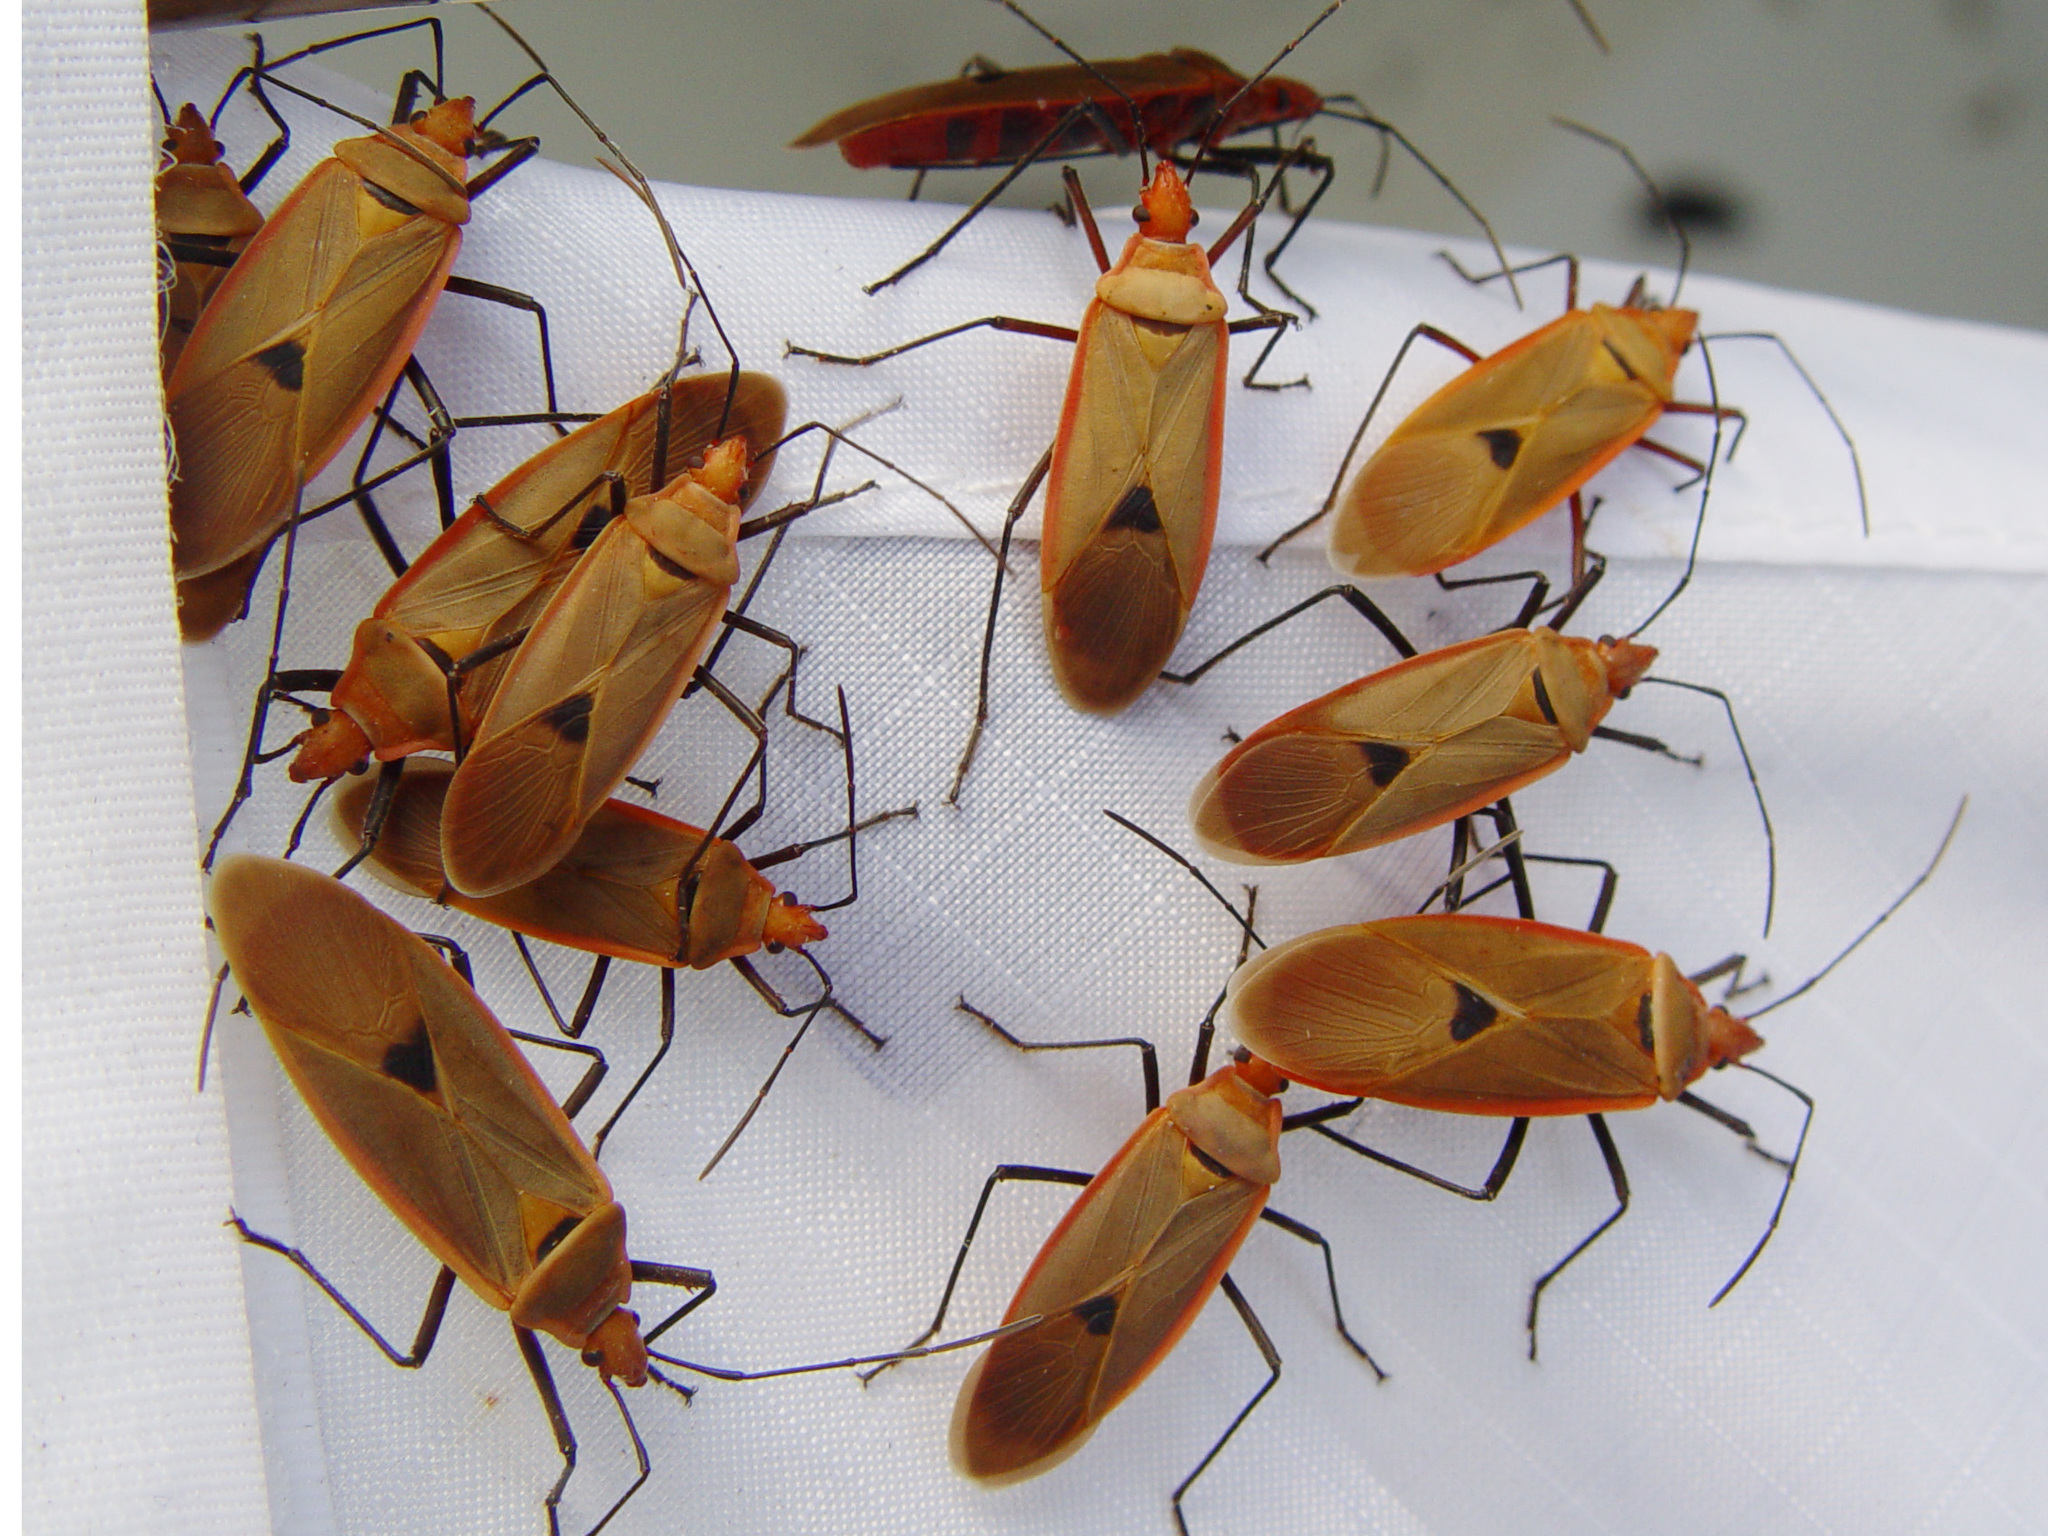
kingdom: Animalia
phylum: Arthropoda
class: Insecta
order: Hemiptera
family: Pyrrhocoridae
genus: Dysdercus
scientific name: Dysdercus fuscomaculatus
